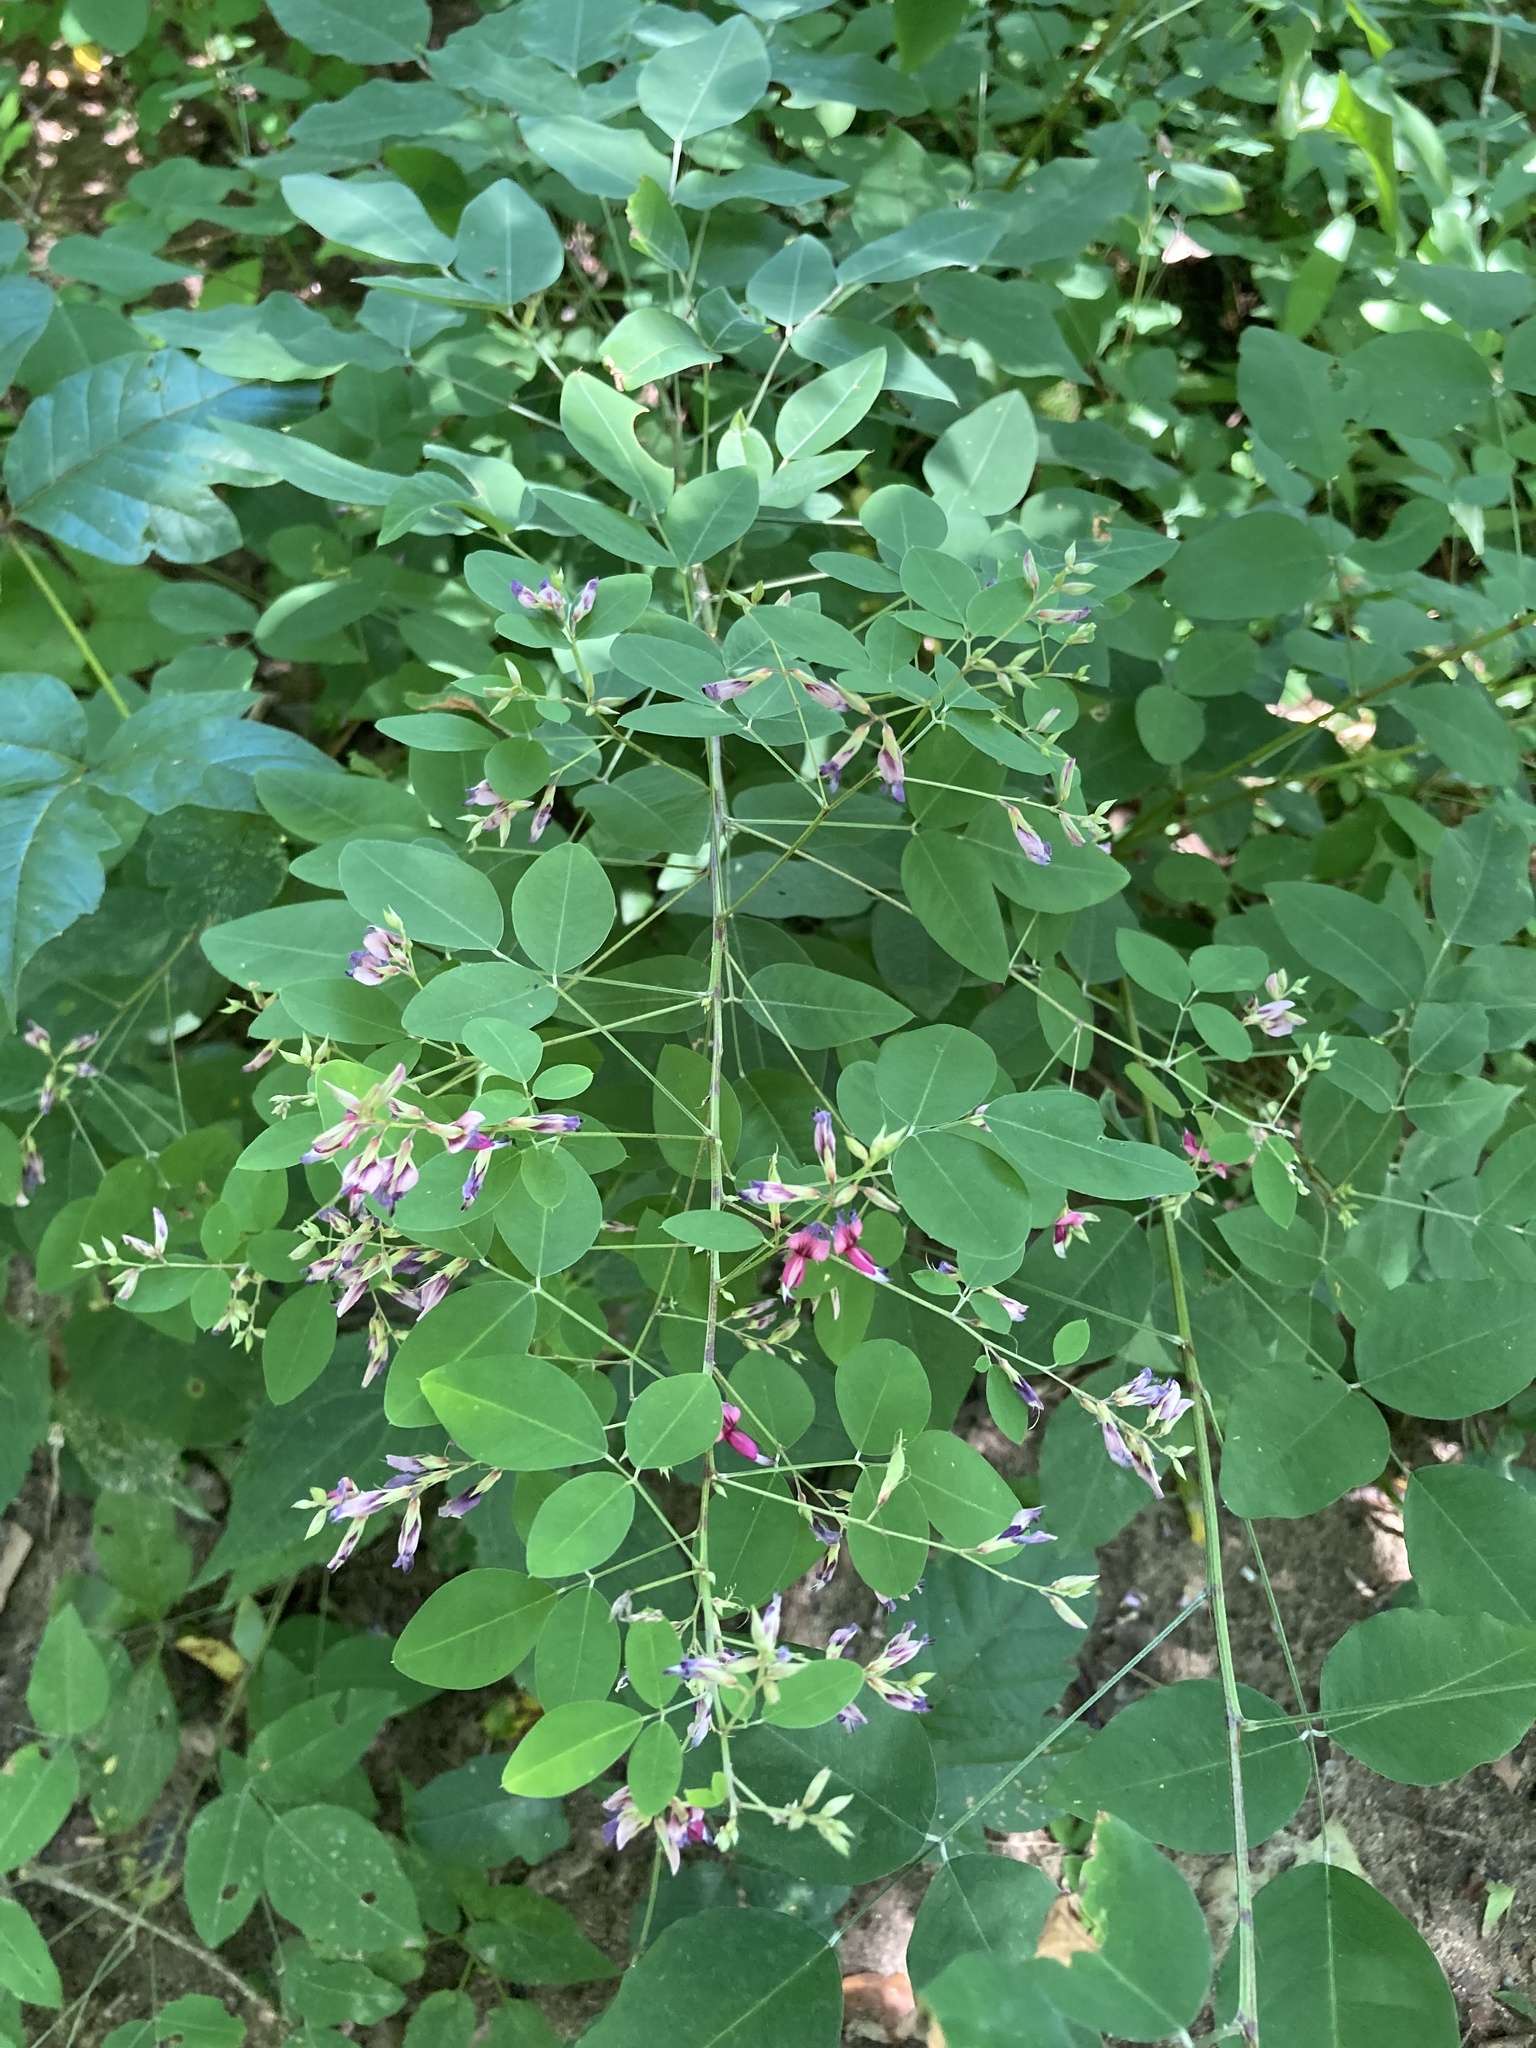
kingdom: Plantae
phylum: Tracheophyta
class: Magnoliopsida
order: Fabales
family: Fabaceae
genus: Lespedeza
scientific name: Lespedeza bicolor
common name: Shrub lespedeza
